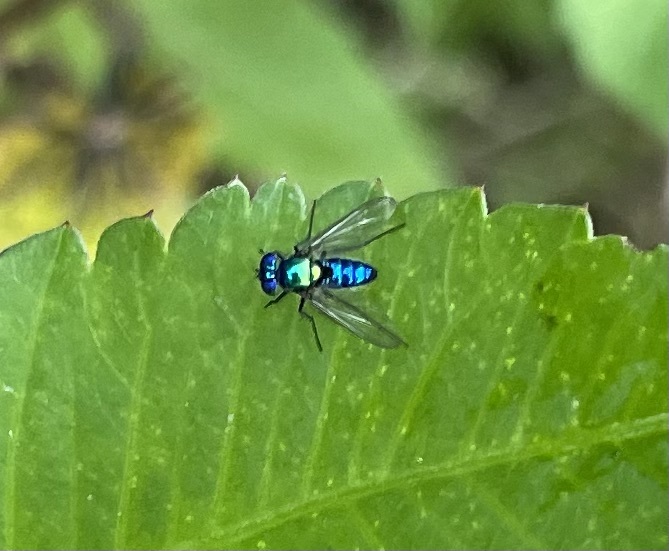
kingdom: Animalia
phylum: Arthropoda
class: Insecta
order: Diptera
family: Dolichopodidae
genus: Condylostylus
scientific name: Condylostylus mundus
